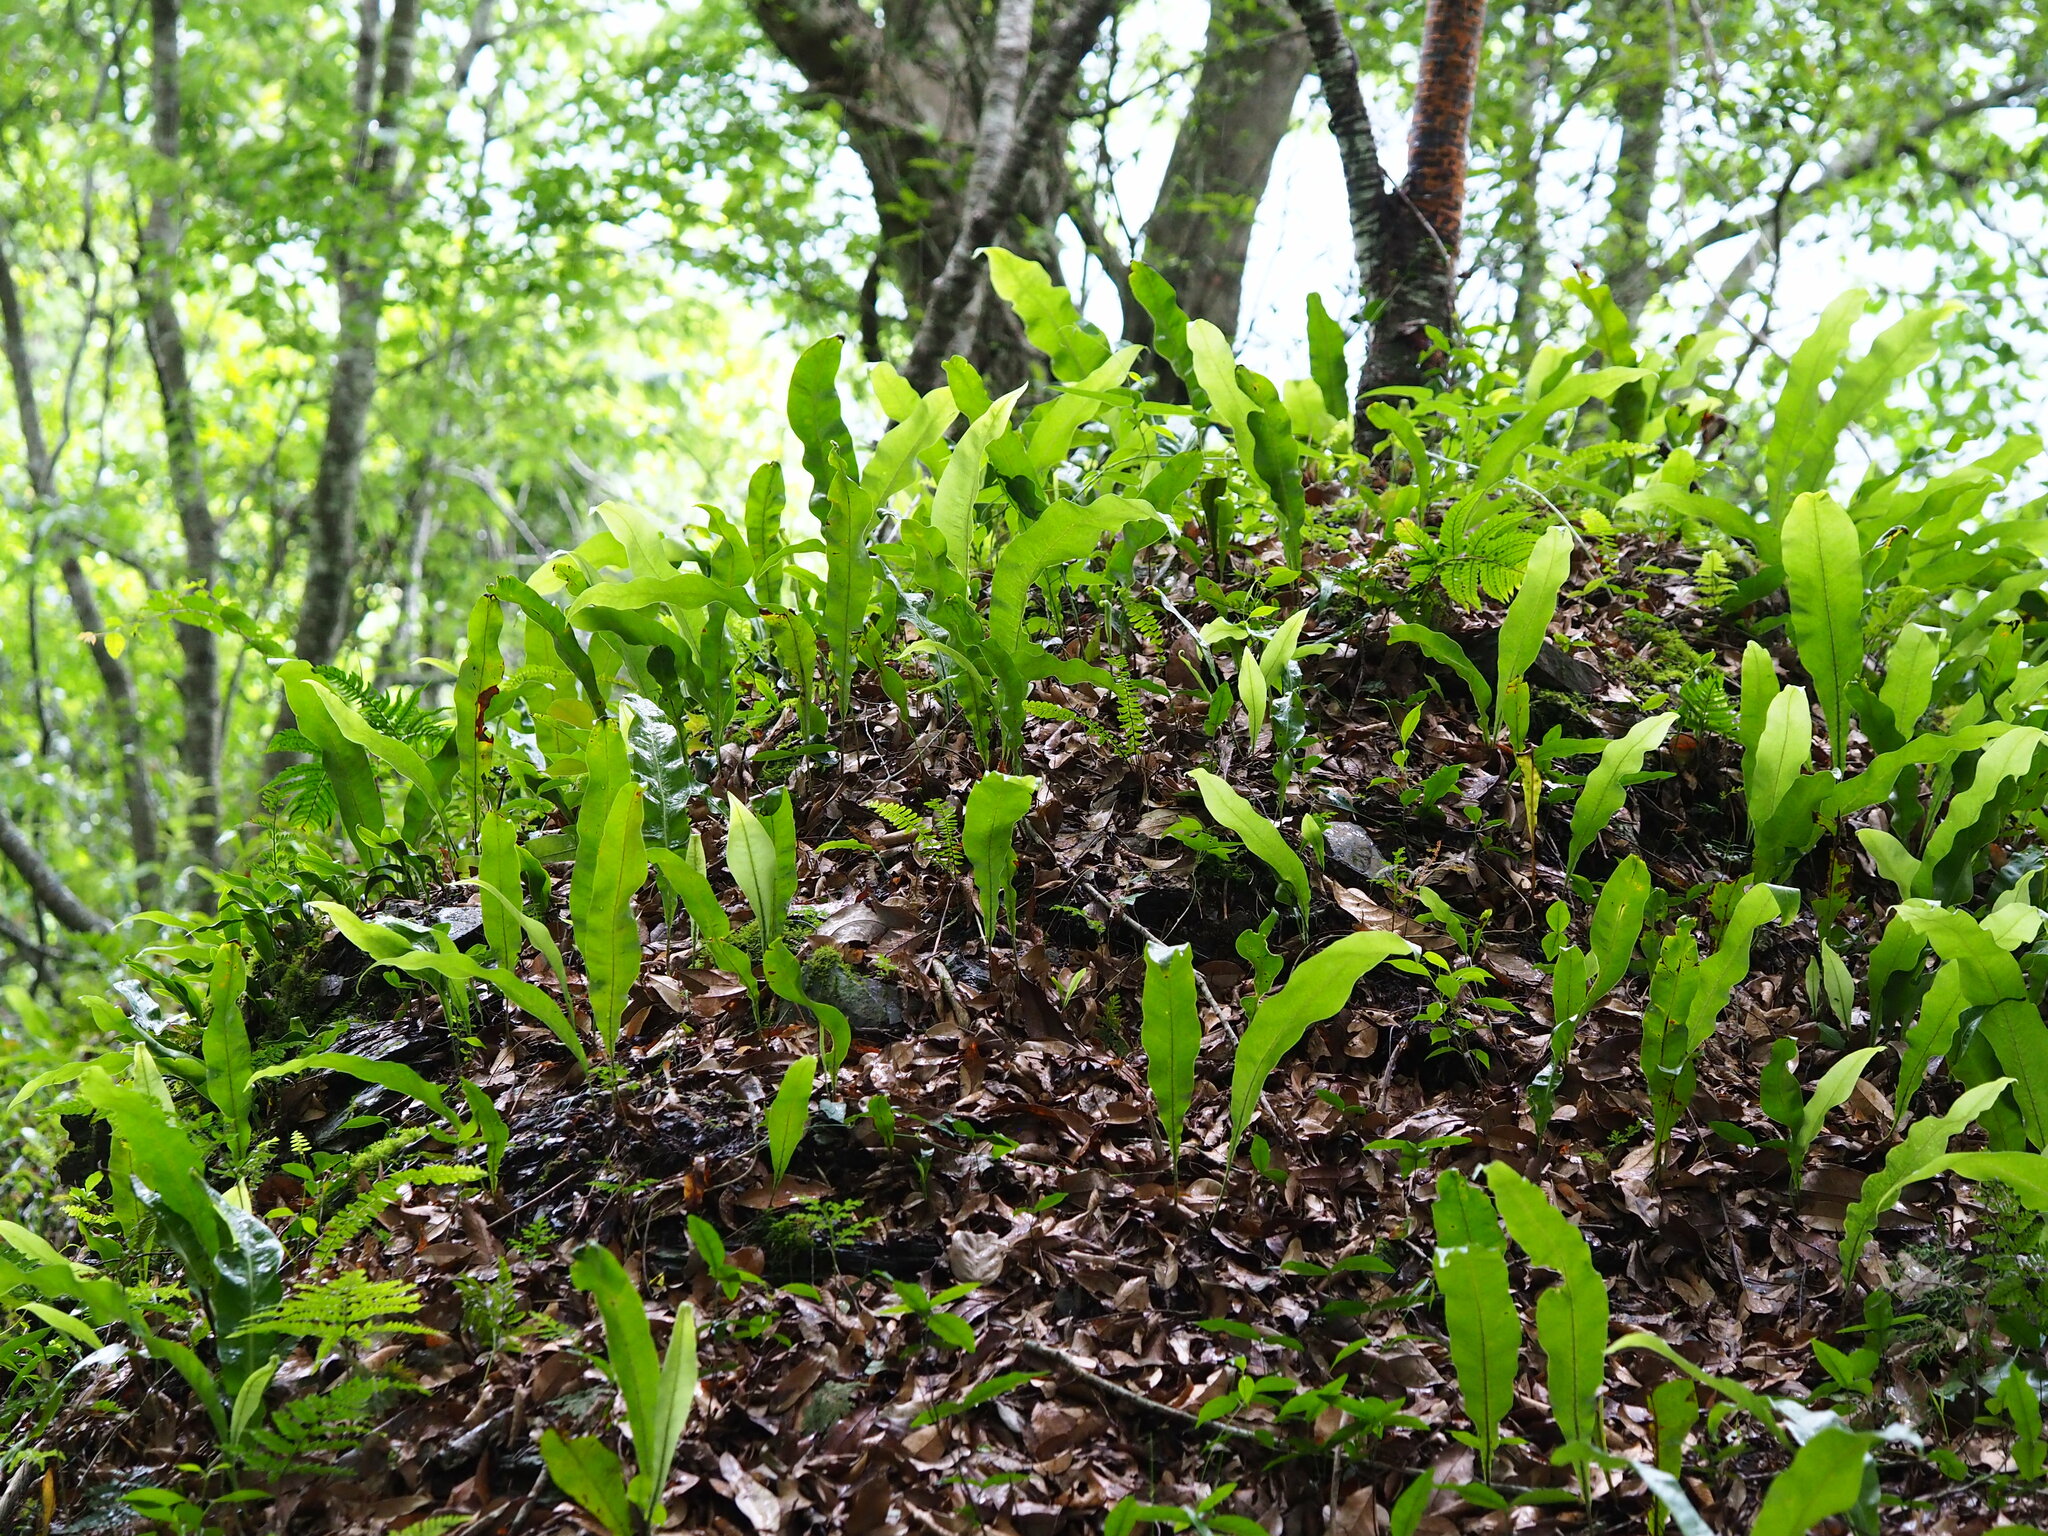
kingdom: Plantae
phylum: Tracheophyta
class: Polypodiopsida
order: Polypodiales
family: Polypodiaceae
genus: Lepisorus
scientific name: Lepisorus superficialis
